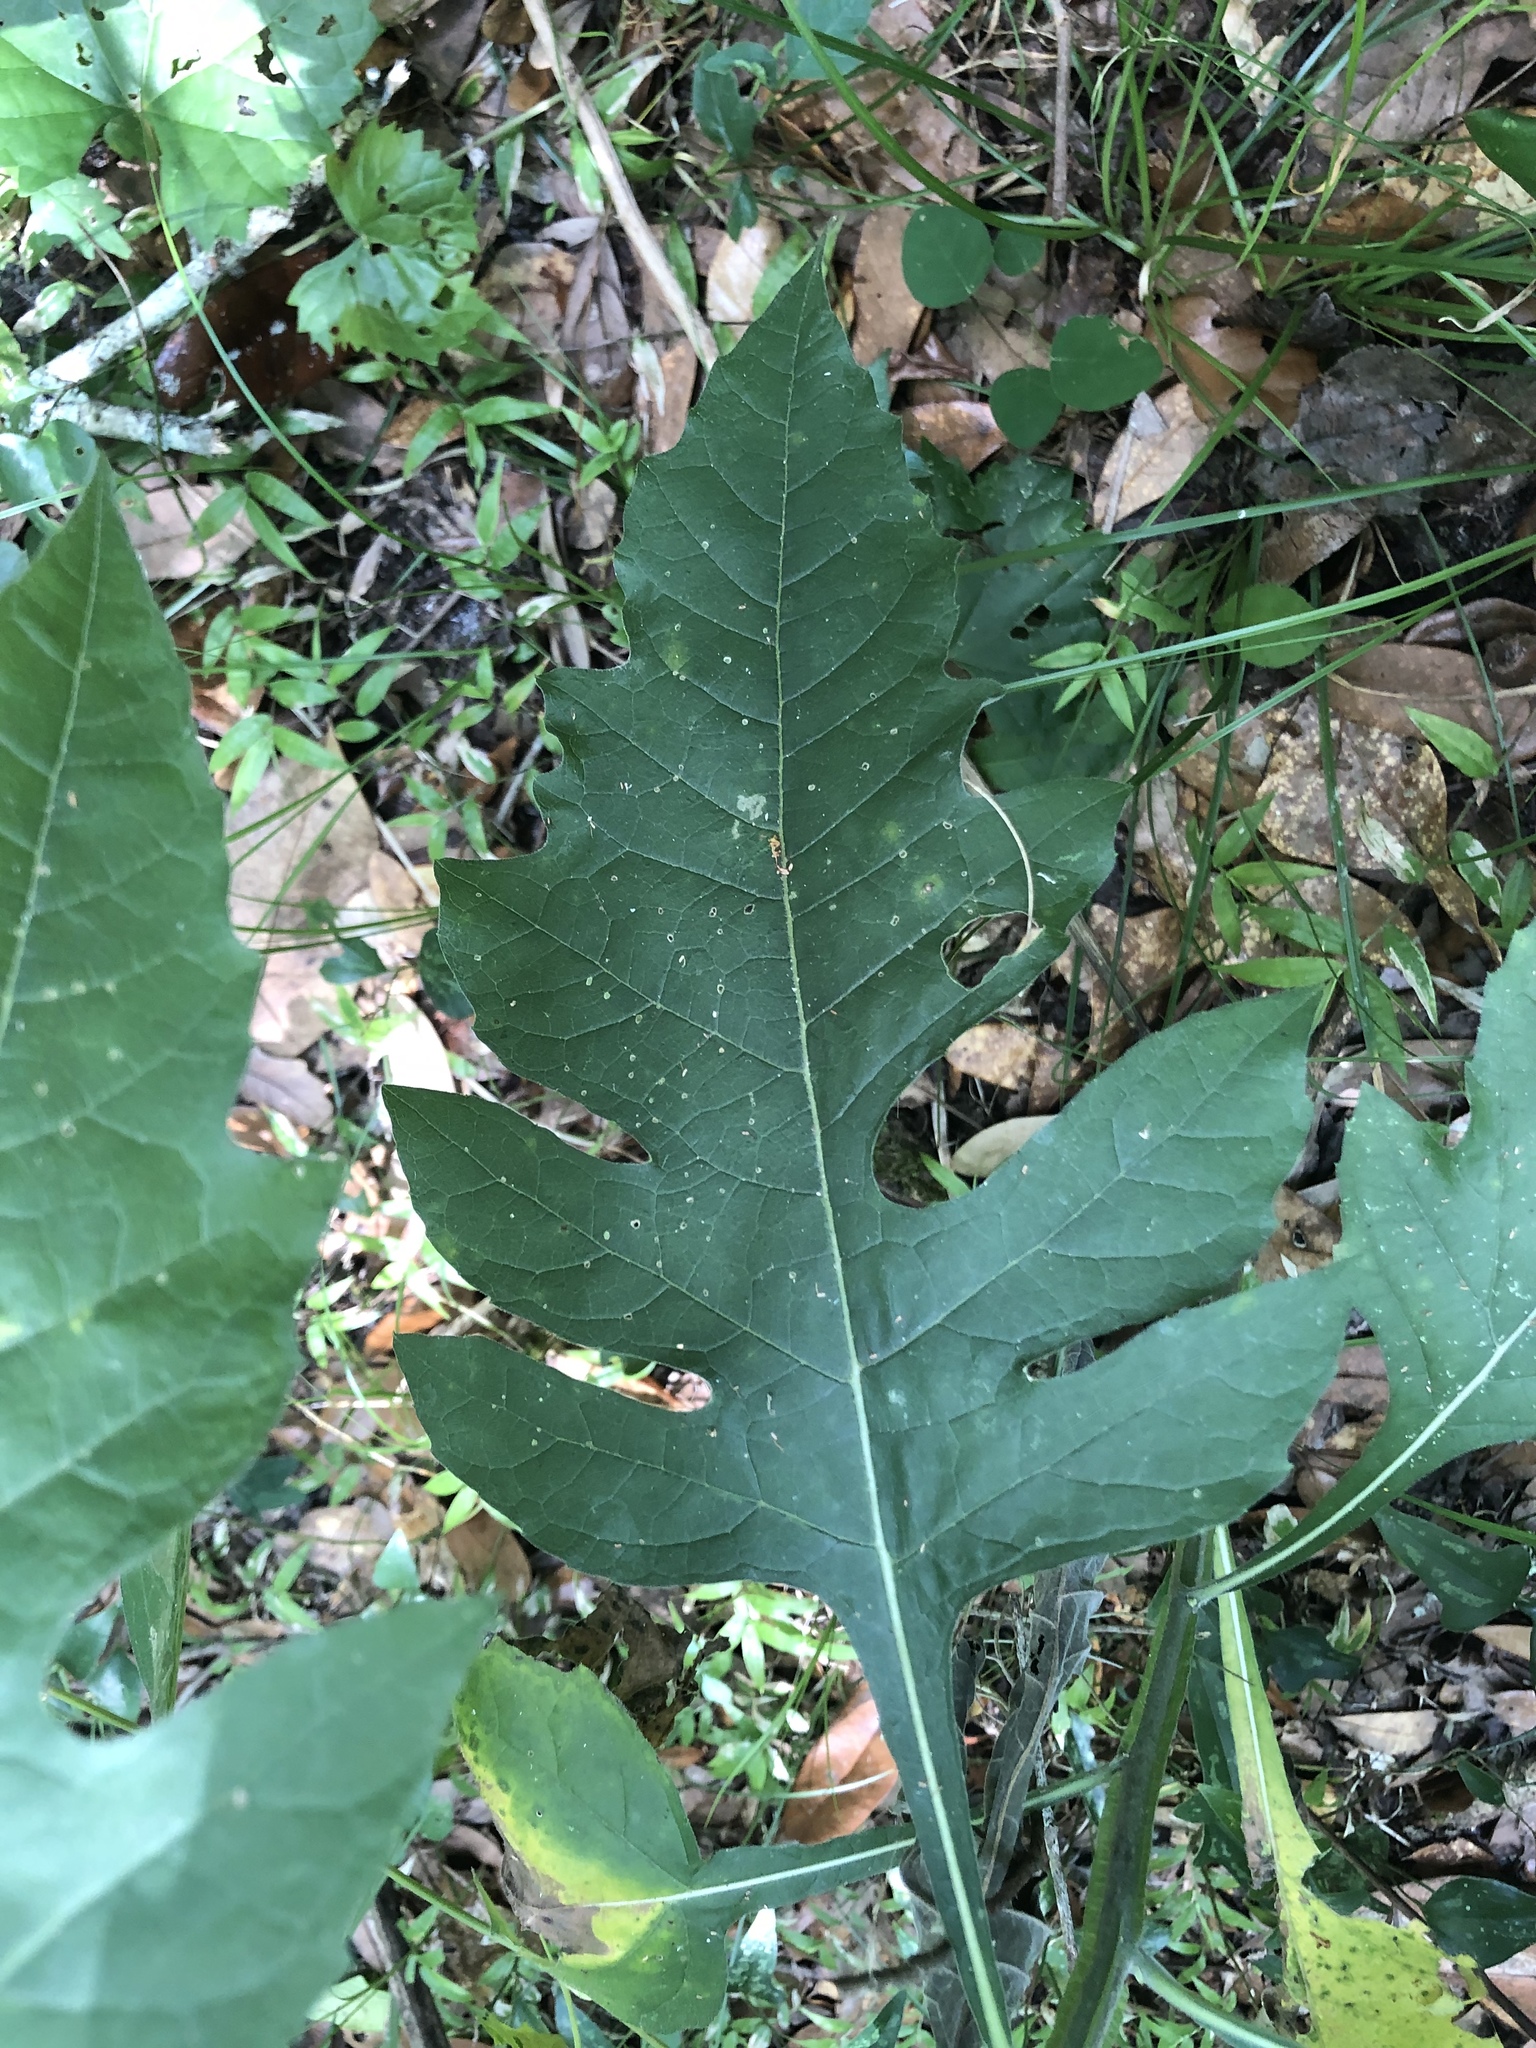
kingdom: Plantae
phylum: Tracheophyta
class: Magnoliopsida
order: Asterales
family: Asteraceae
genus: Verbesina
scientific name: Verbesina virginica
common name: Frostweed
